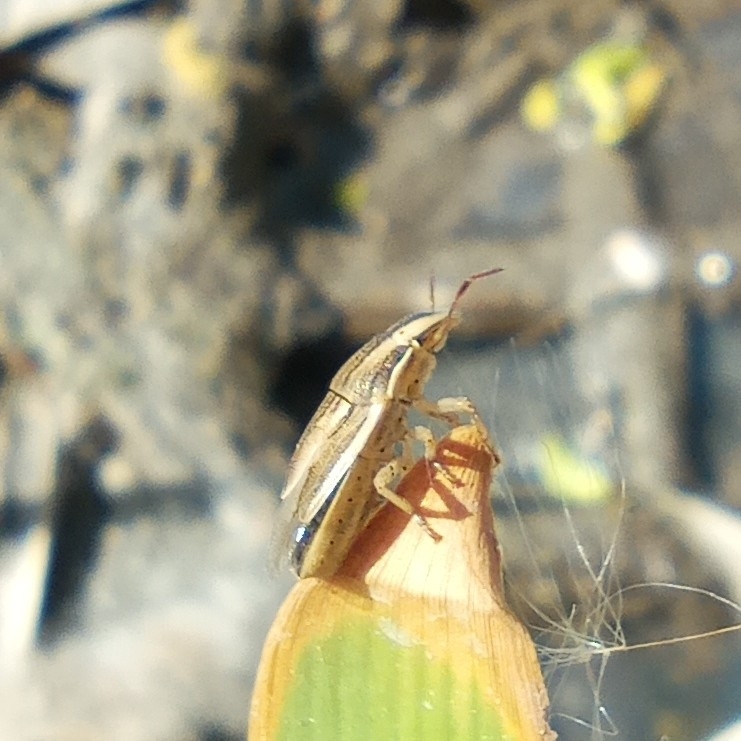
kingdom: Animalia
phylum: Arthropoda
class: Insecta
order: Hemiptera
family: Pentatomidae
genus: Aelia
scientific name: Aelia acuminata
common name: Bishop's mitre
